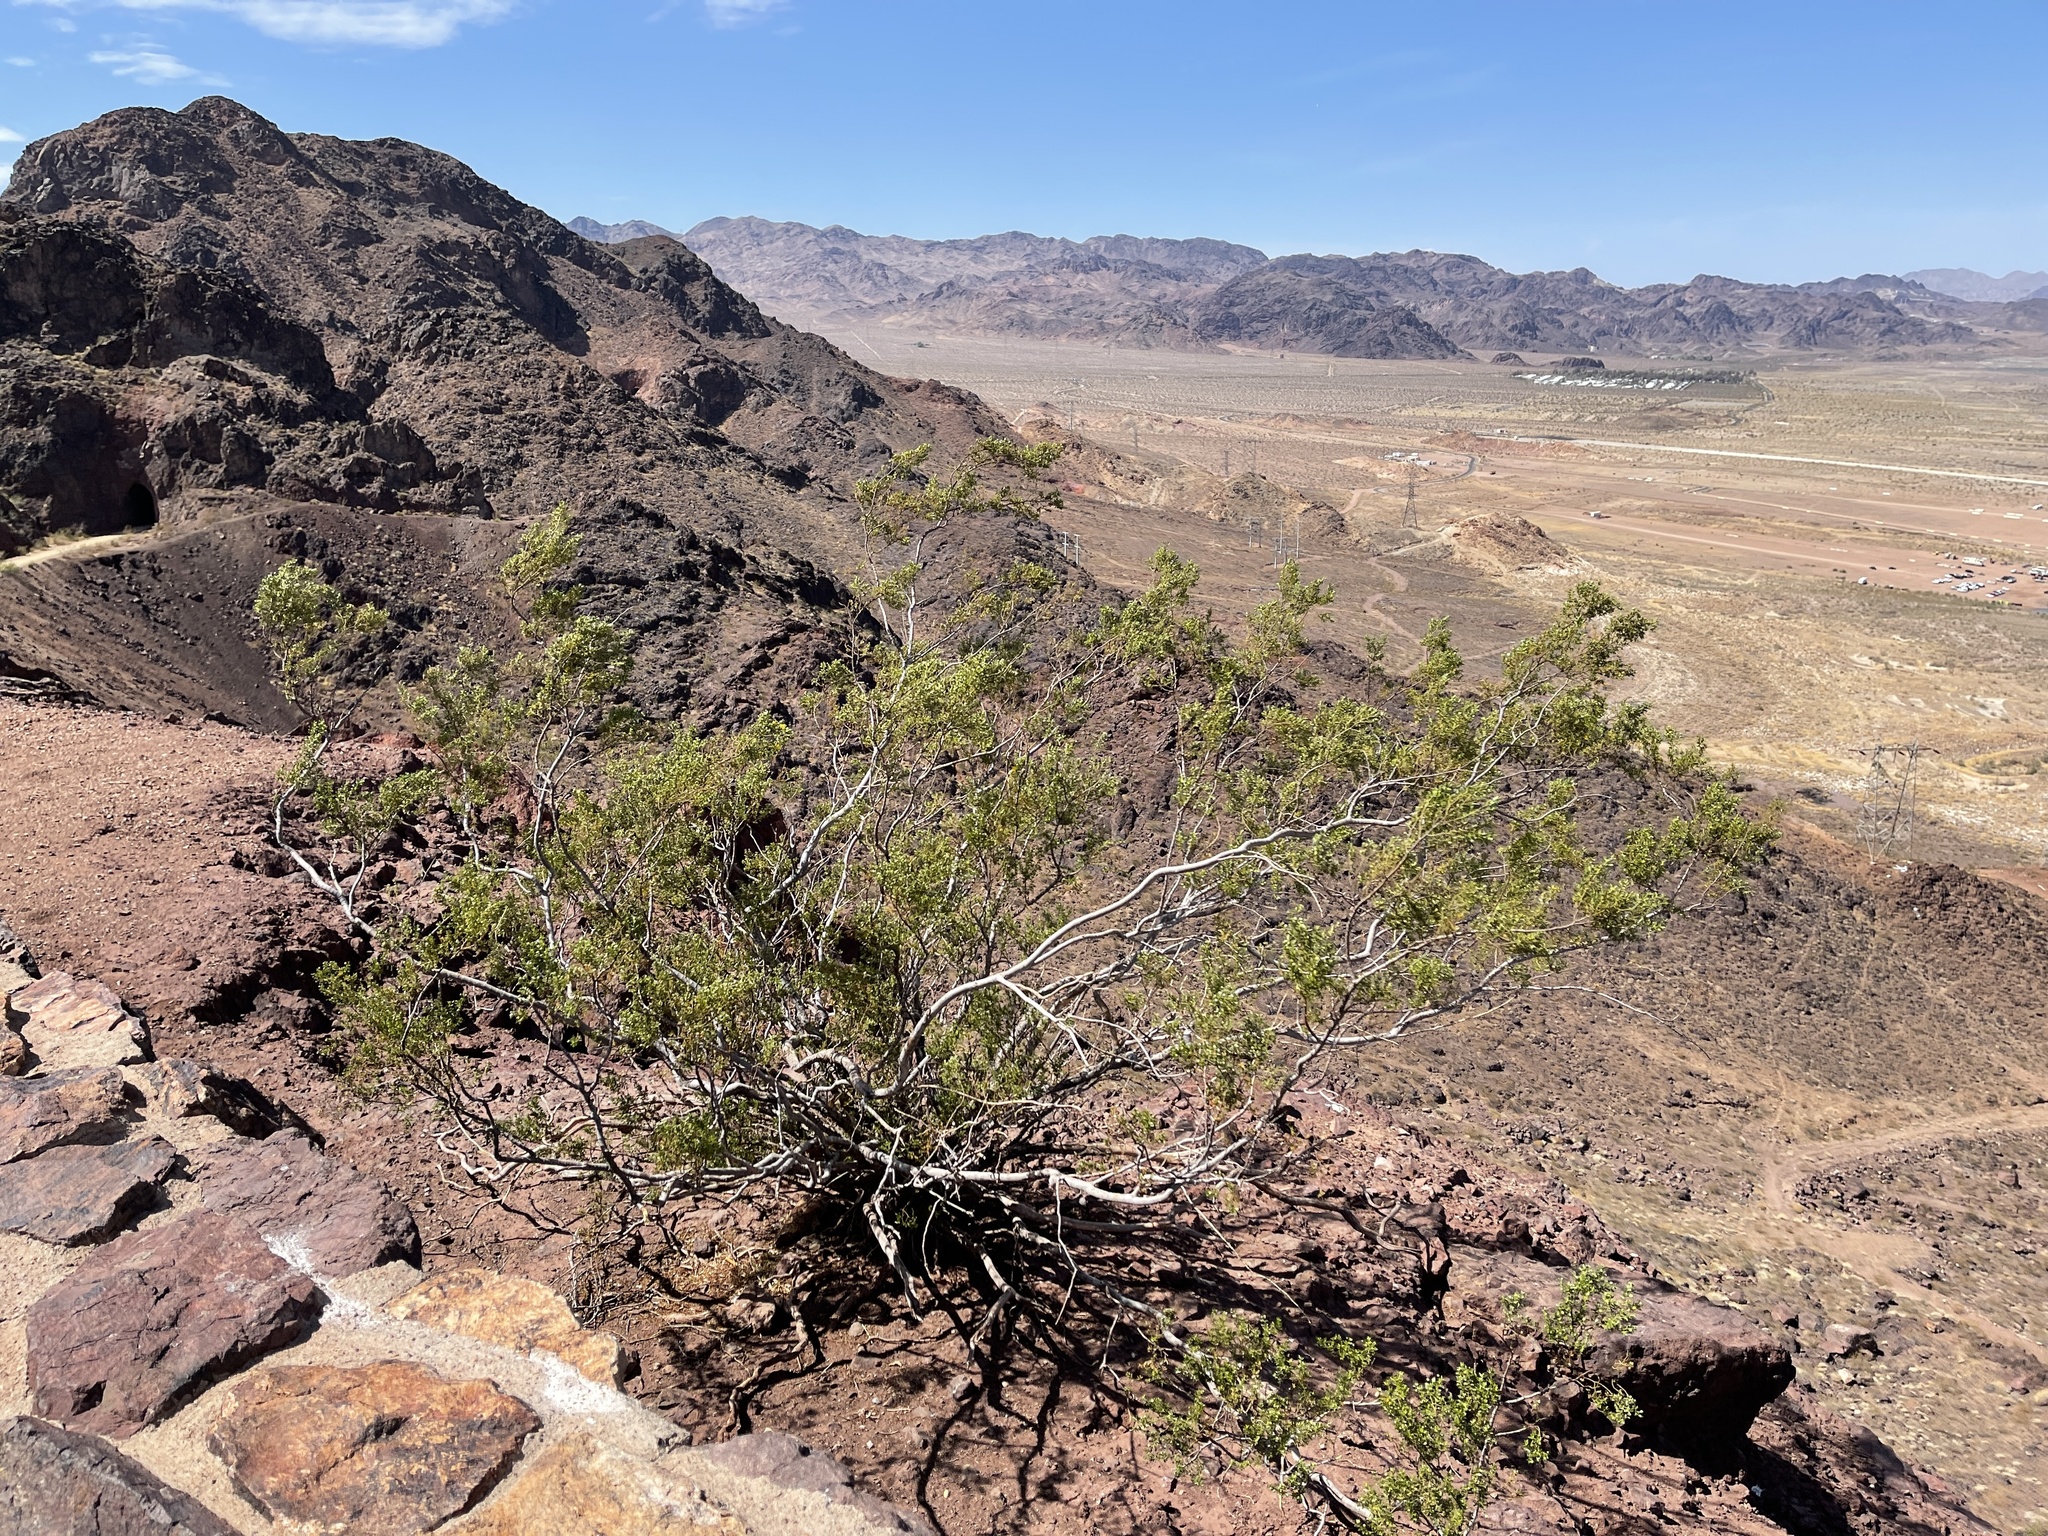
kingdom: Plantae
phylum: Tracheophyta
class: Magnoliopsida
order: Zygophyllales
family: Zygophyllaceae
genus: Larrea
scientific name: Larrea tridentata
